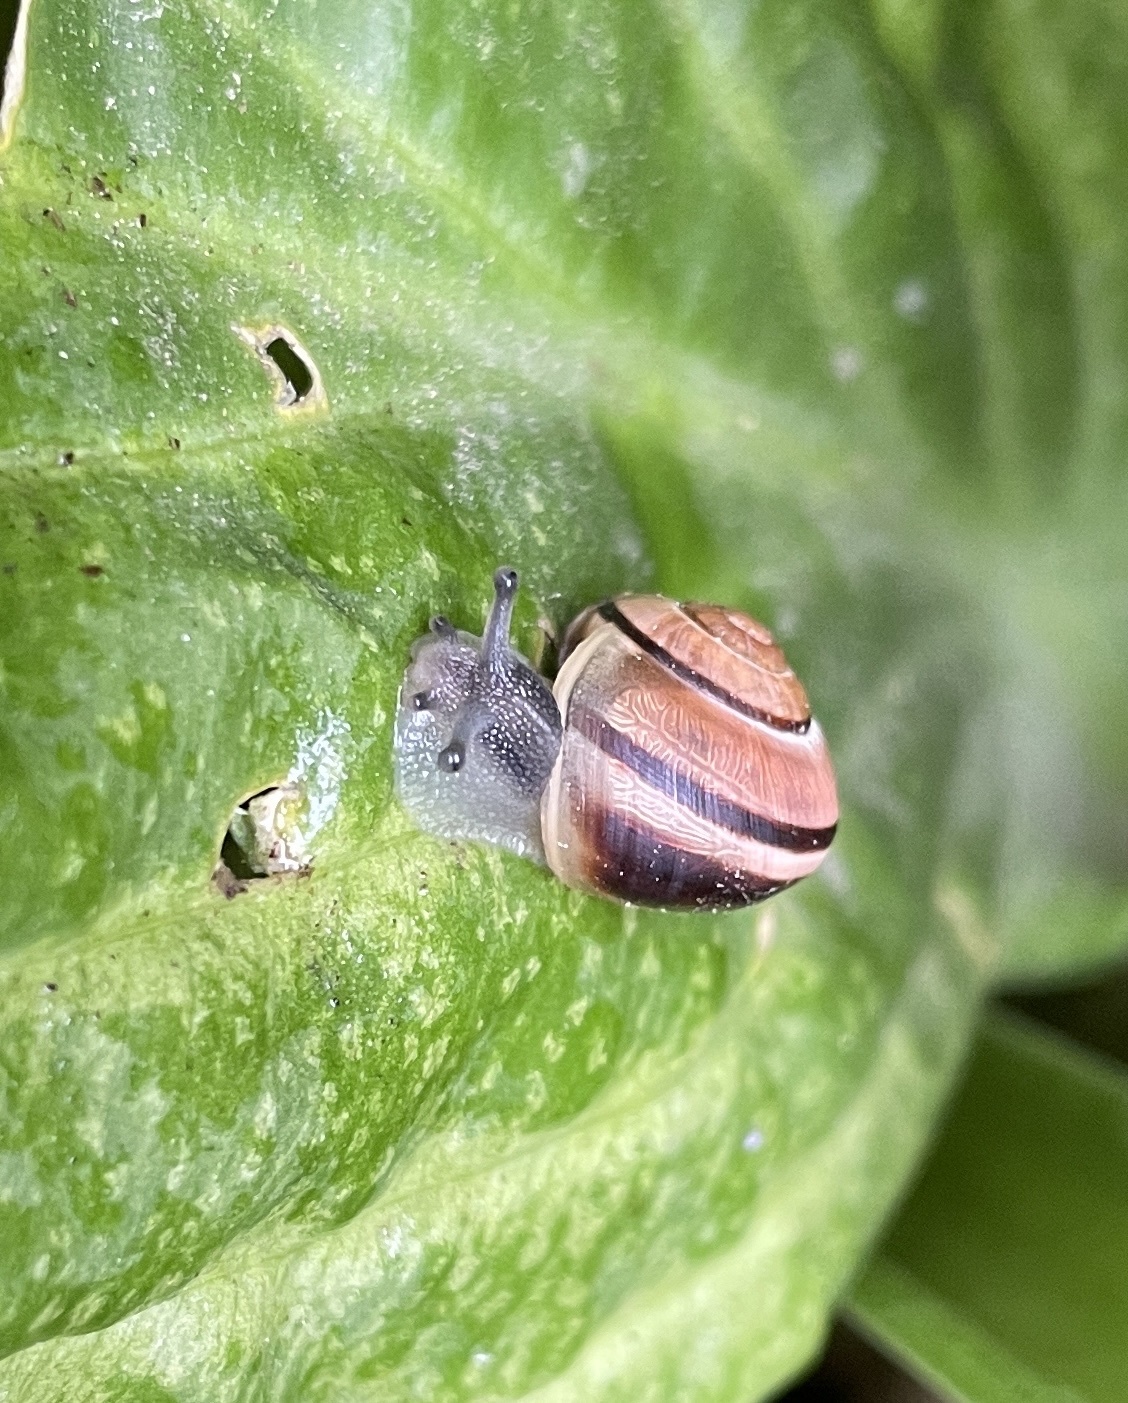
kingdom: Animalia
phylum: Mollusca
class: Gastropoda
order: Stylommatophora
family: Helicidae
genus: Cepaea
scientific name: Cepaea nemoralis
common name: Grovesnail
